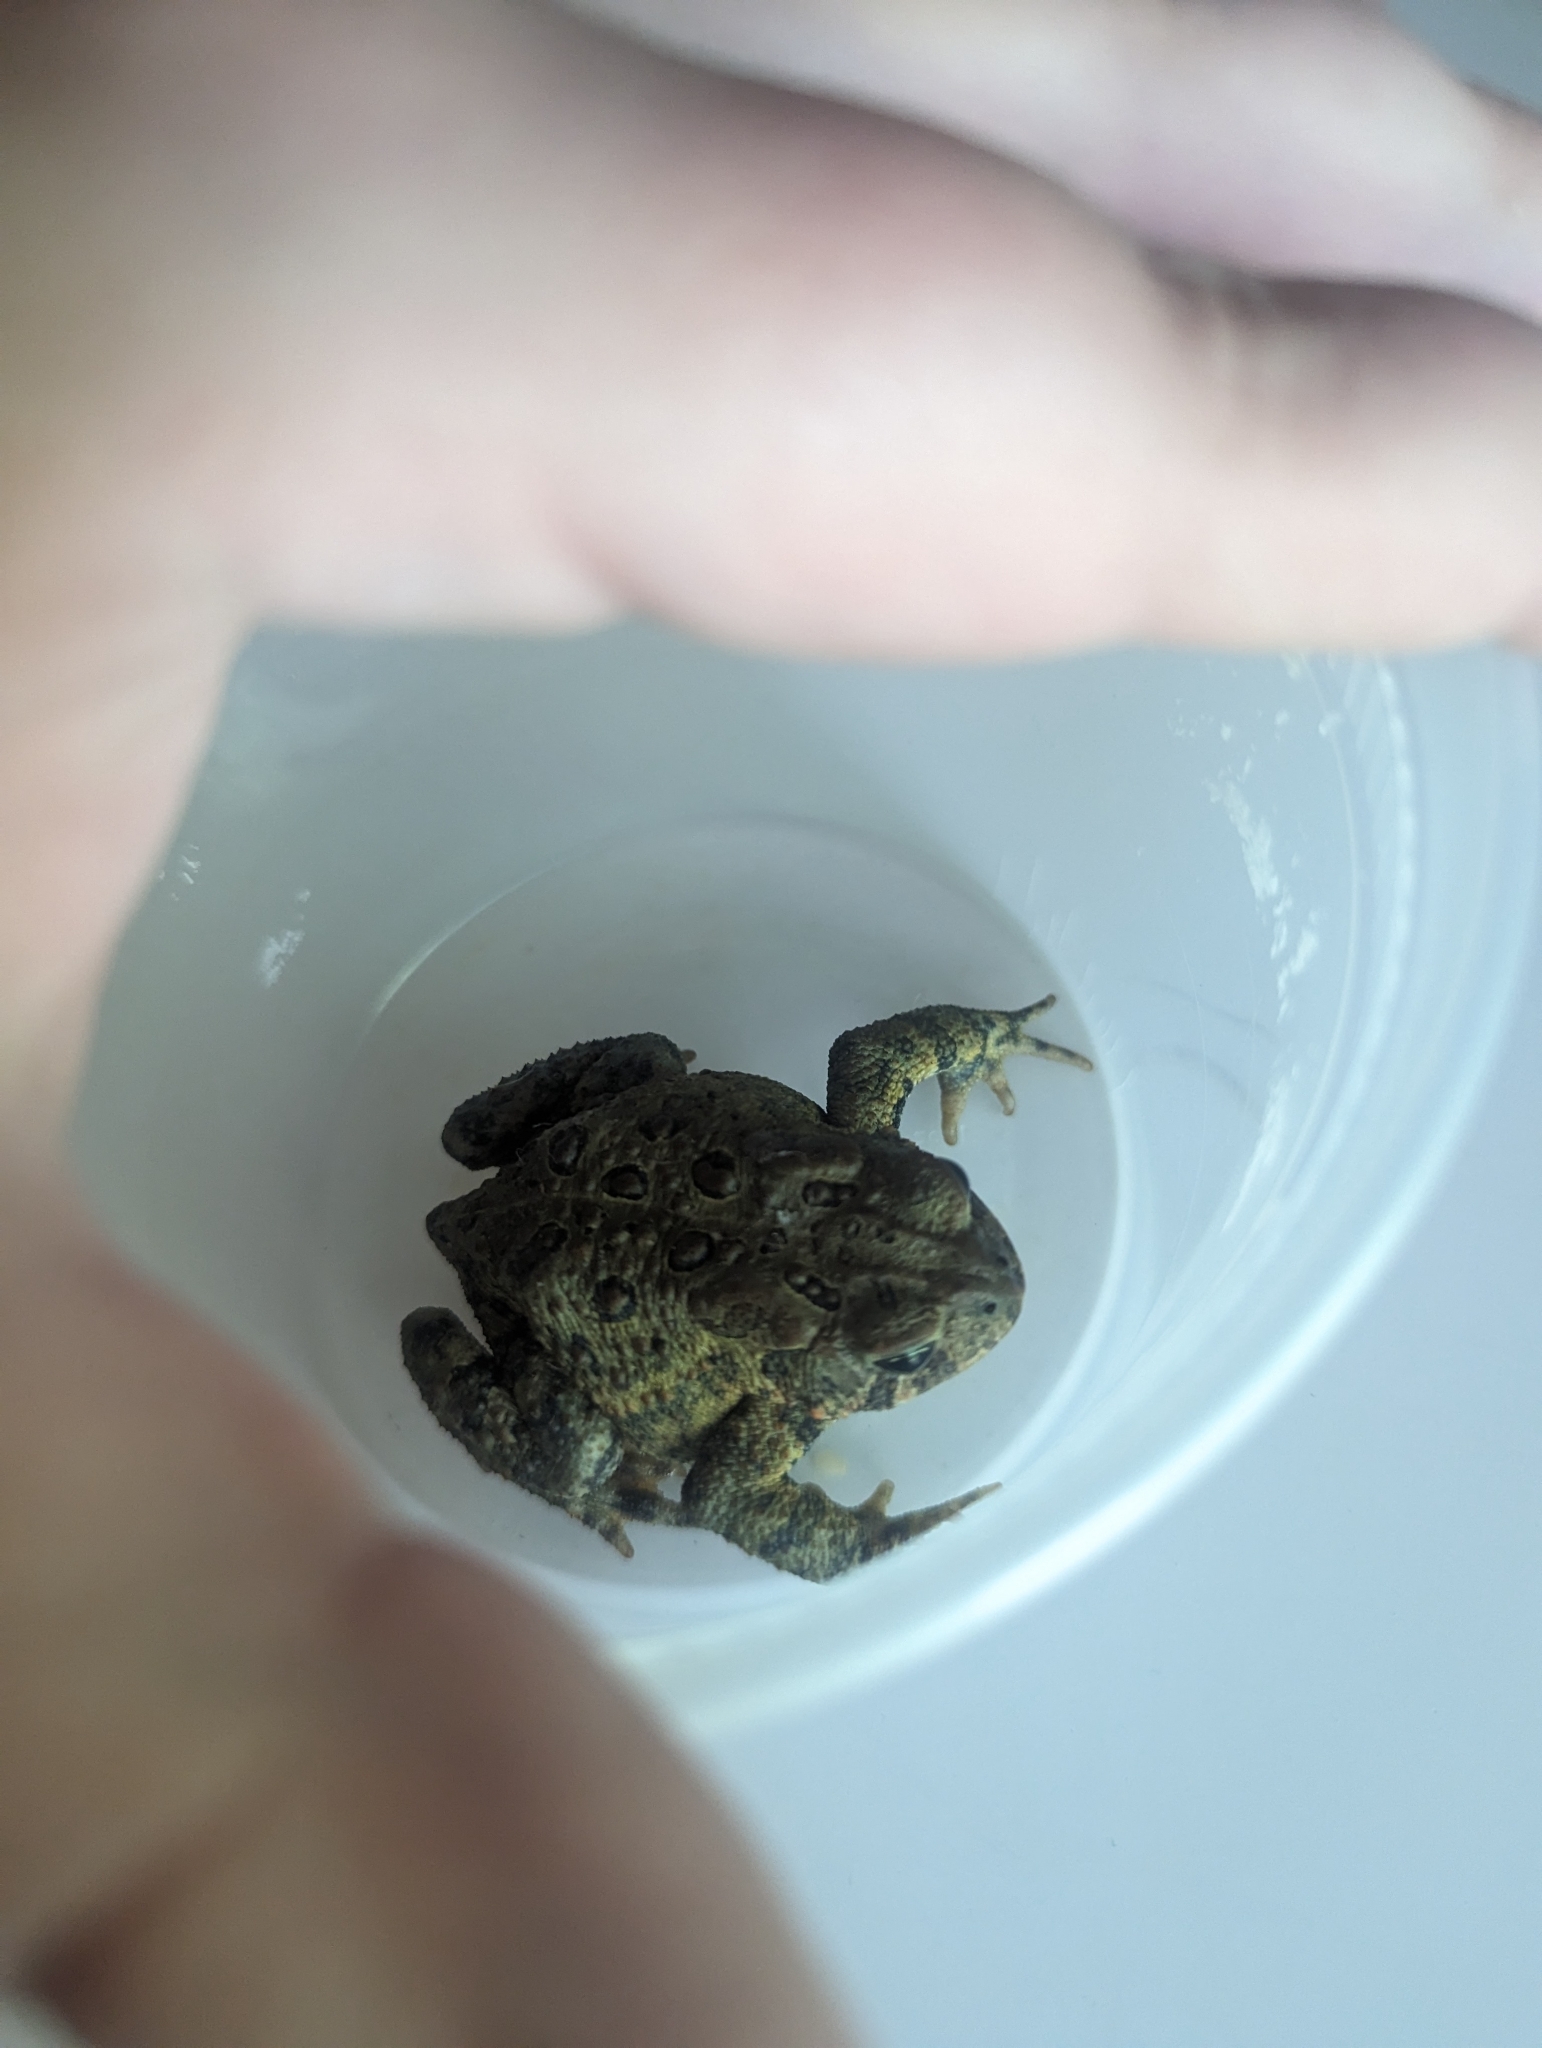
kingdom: Animalia
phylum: Chordata
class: Amphibia
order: Anura
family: Bufonidae
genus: Anaxyrus
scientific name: Anaxyrus americanus
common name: American toad
